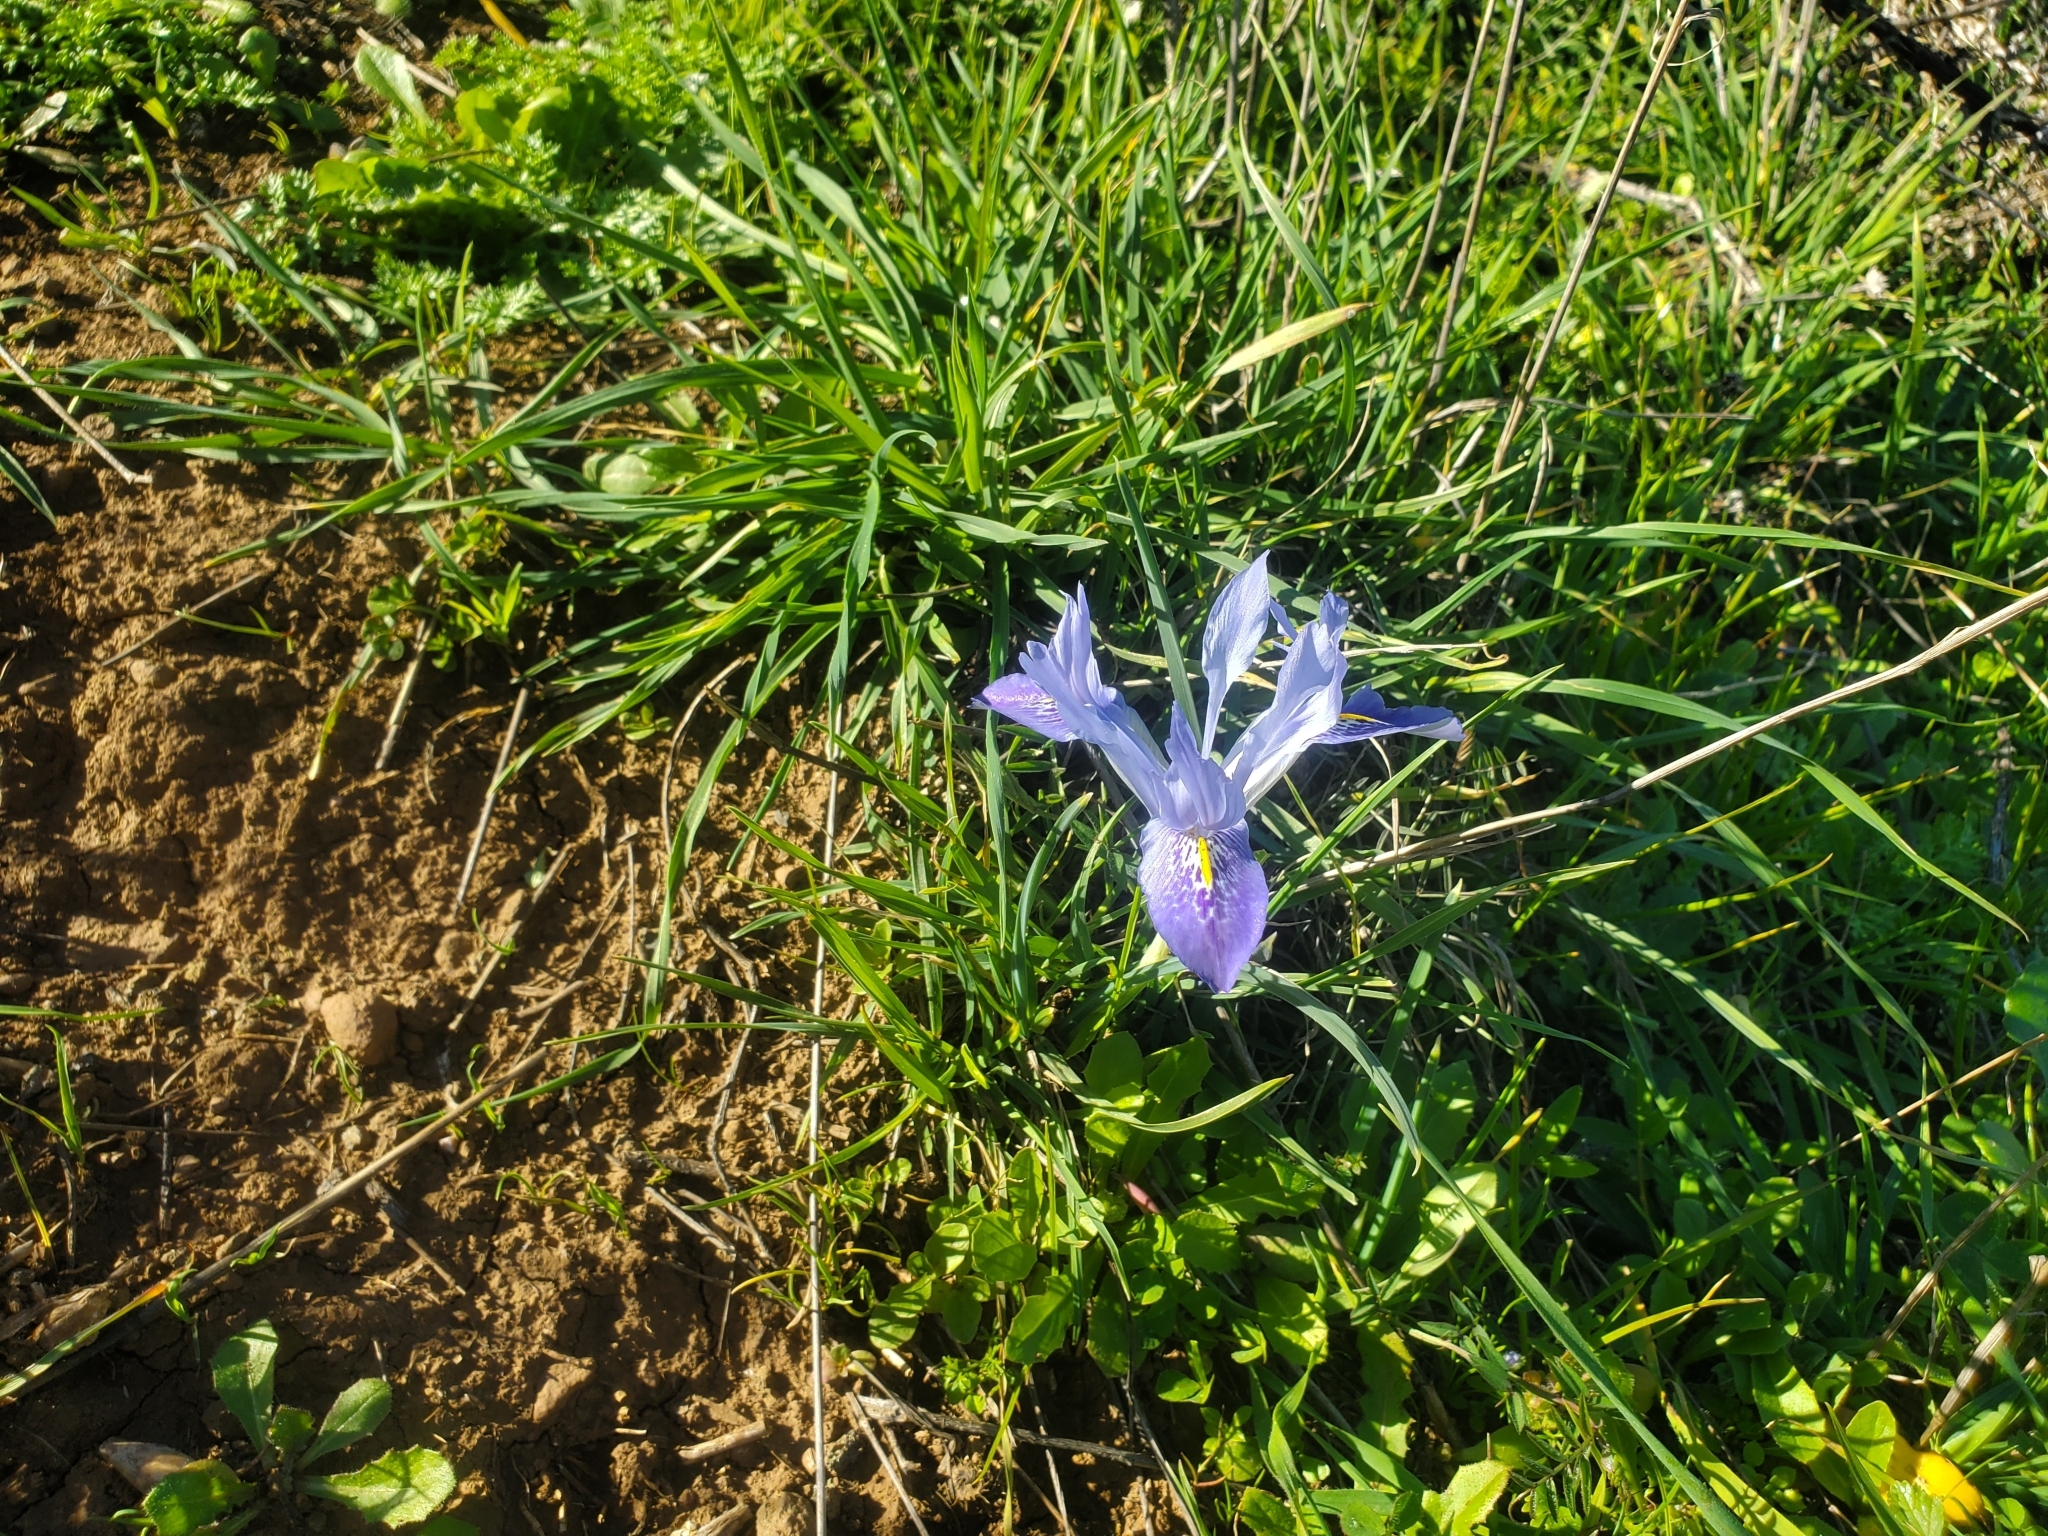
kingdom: Plantae
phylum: Tracheophyta
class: Liliopsida
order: Asparagales
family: Iridaceae
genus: Iris
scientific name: Iris histrio
